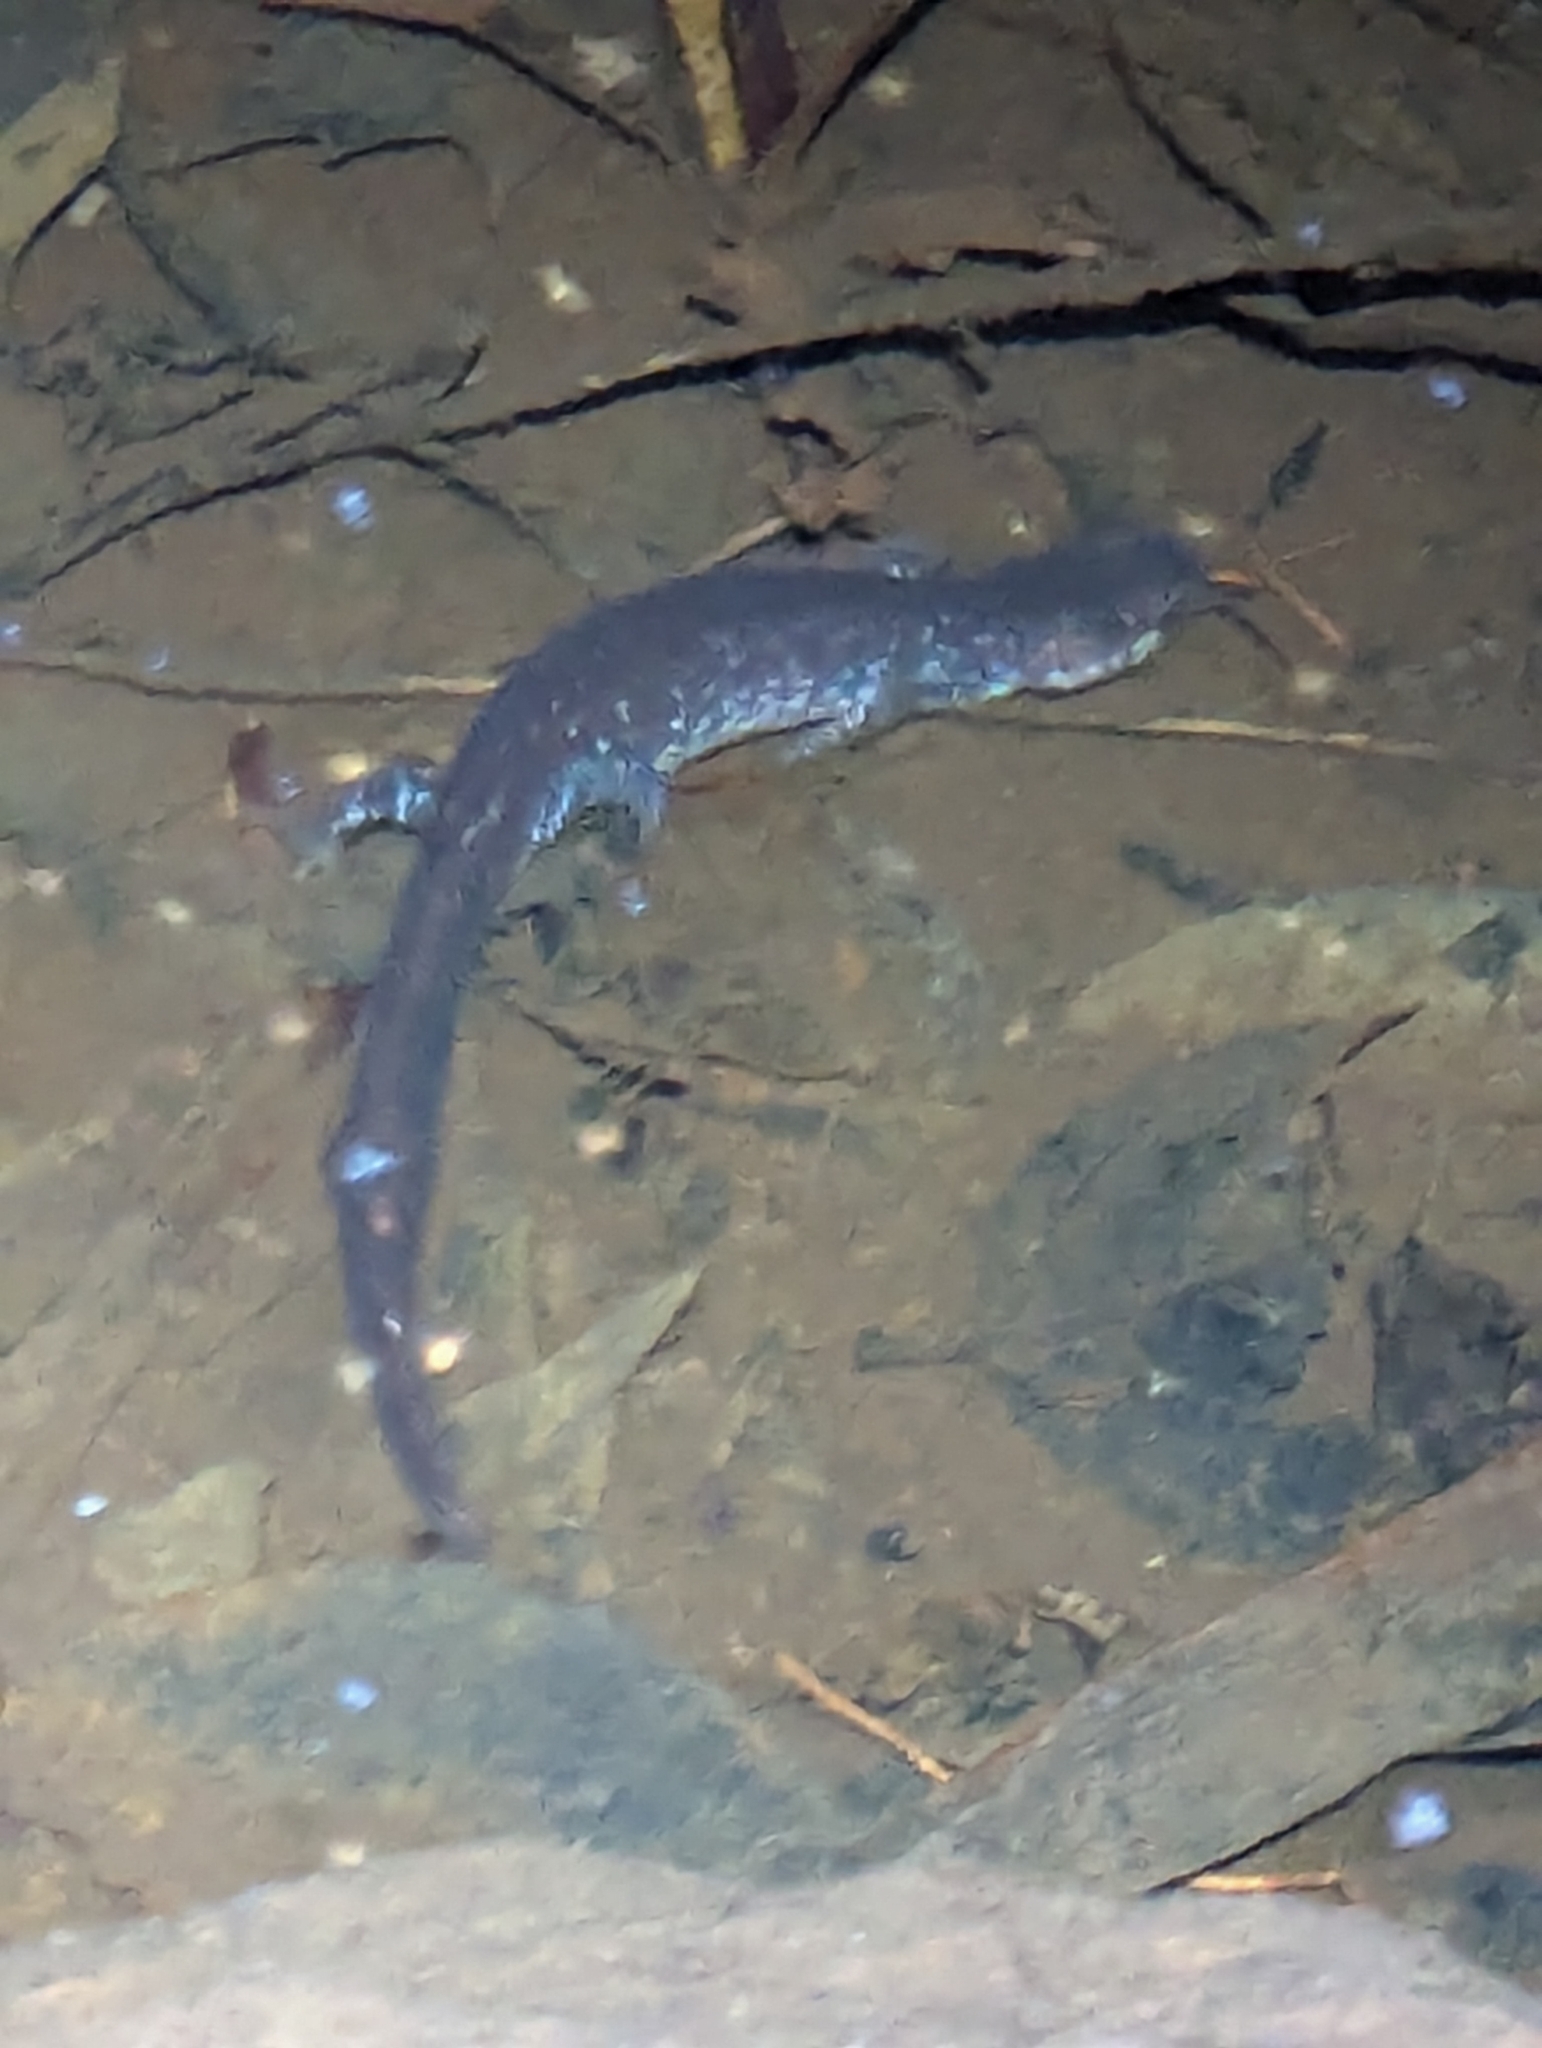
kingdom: Animalia
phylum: Chordata
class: Amphibia
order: Caudata
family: Ambystomatidae
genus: Ambystoma
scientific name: Ambystoma laterale
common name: Blue-spotted salamander
